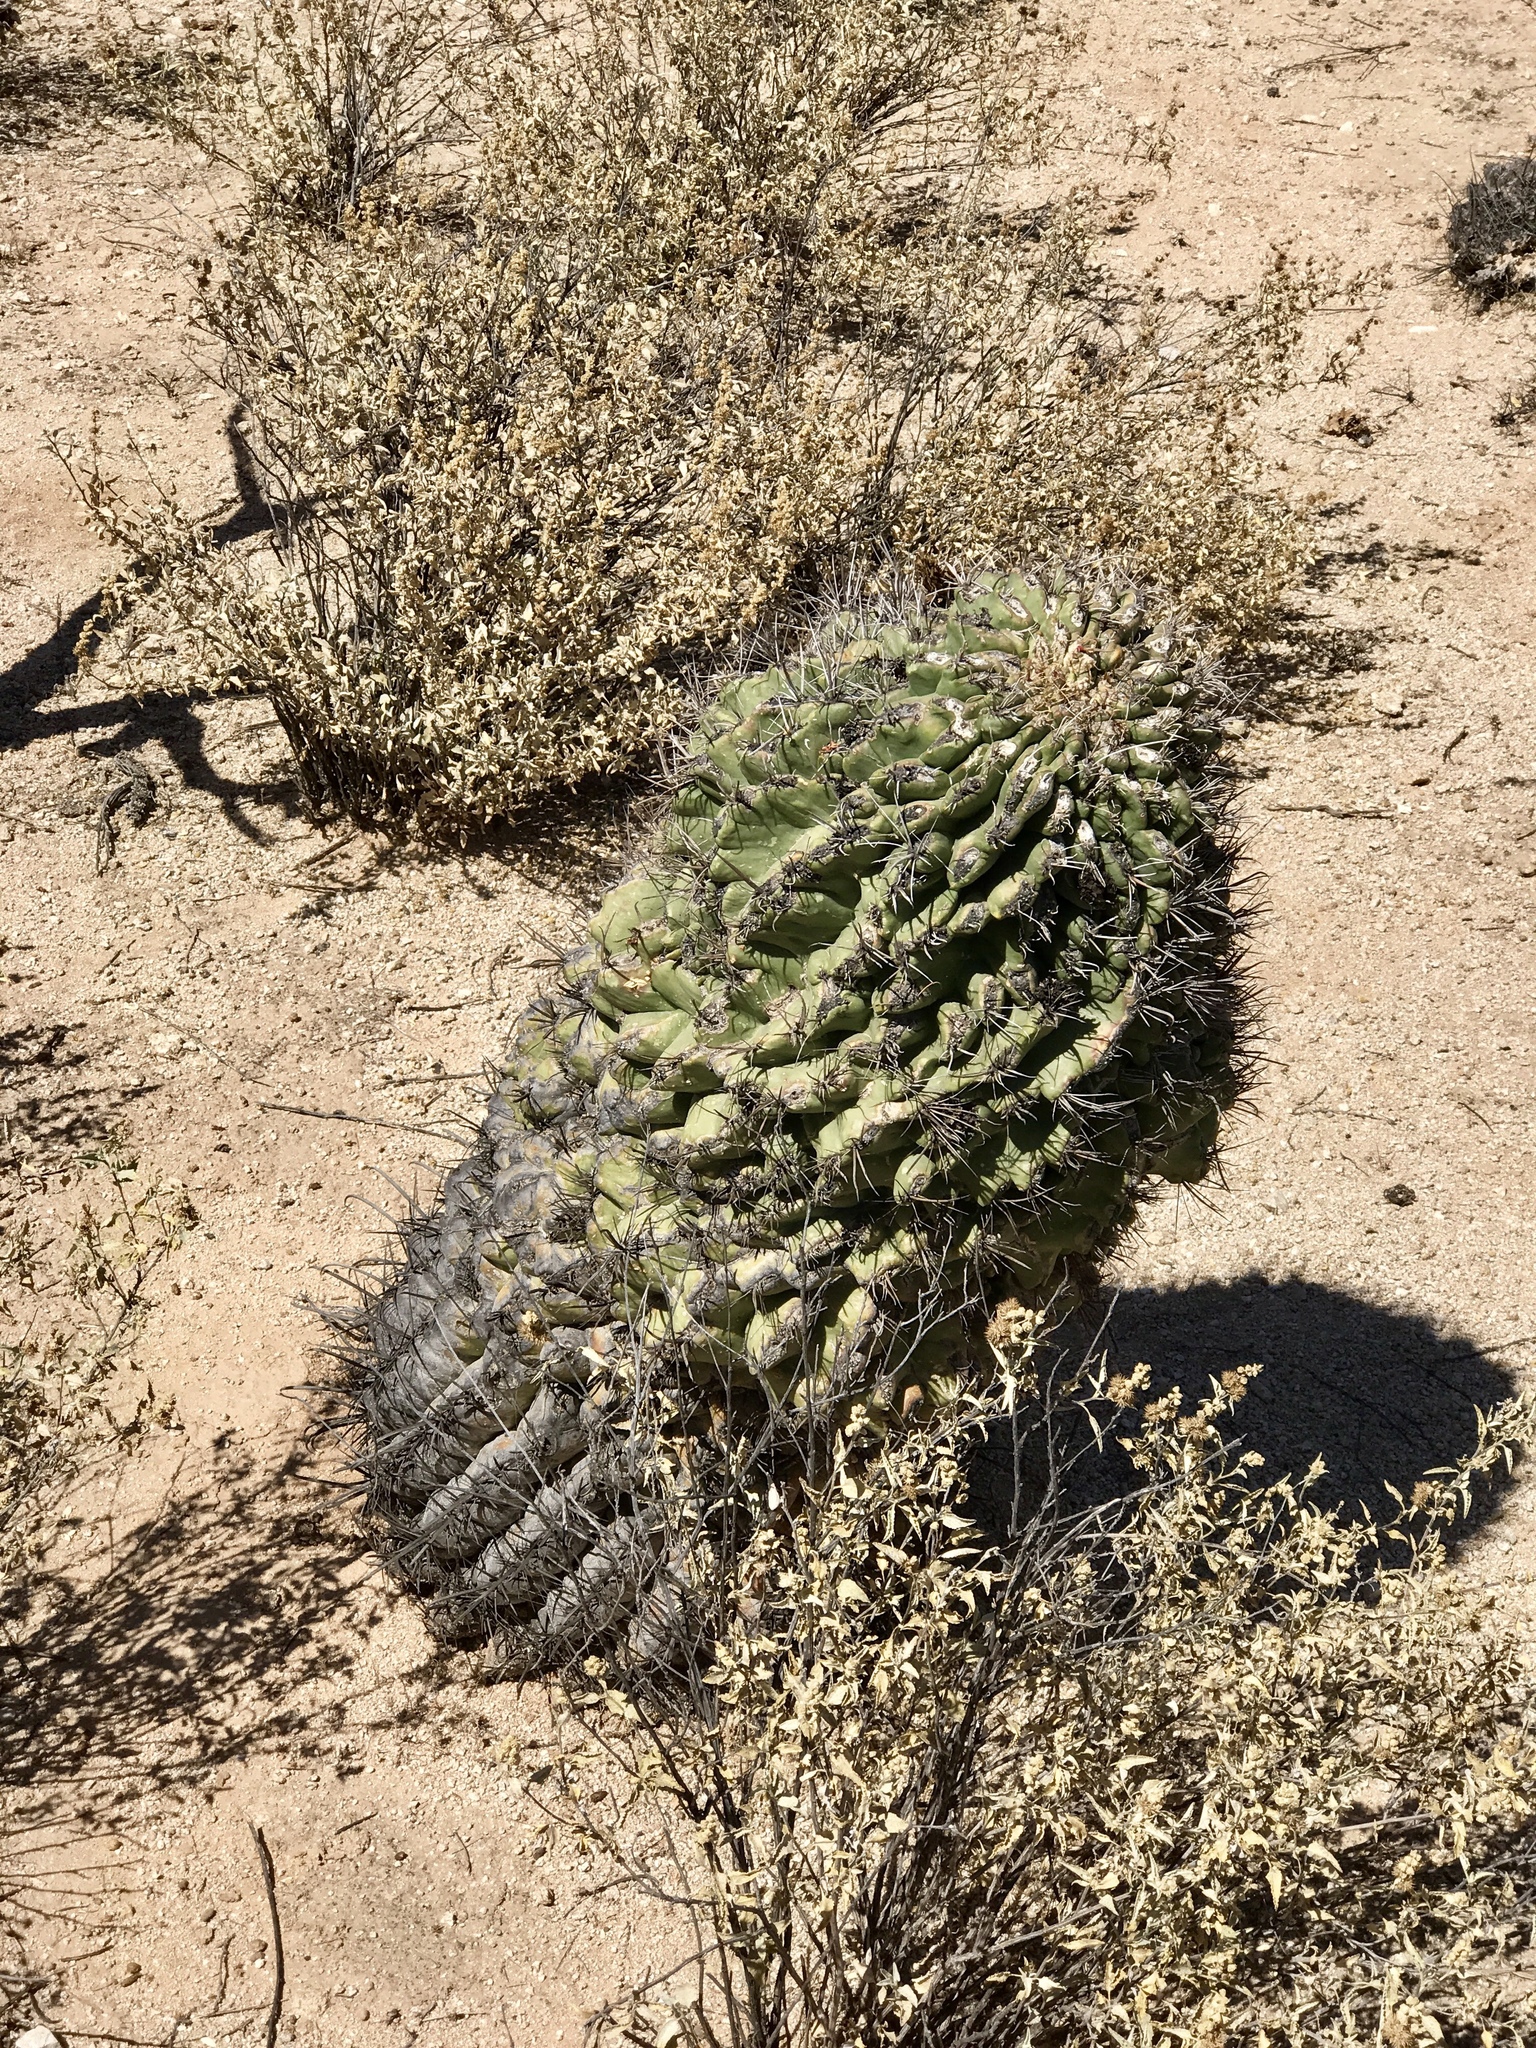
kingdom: Plantae
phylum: Tracheophyta
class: Magnoliopsida
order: Caryophyllales
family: Cactaceae
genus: Ferocactus
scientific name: Ferocactus wislizeni
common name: Candy barrel cactus
